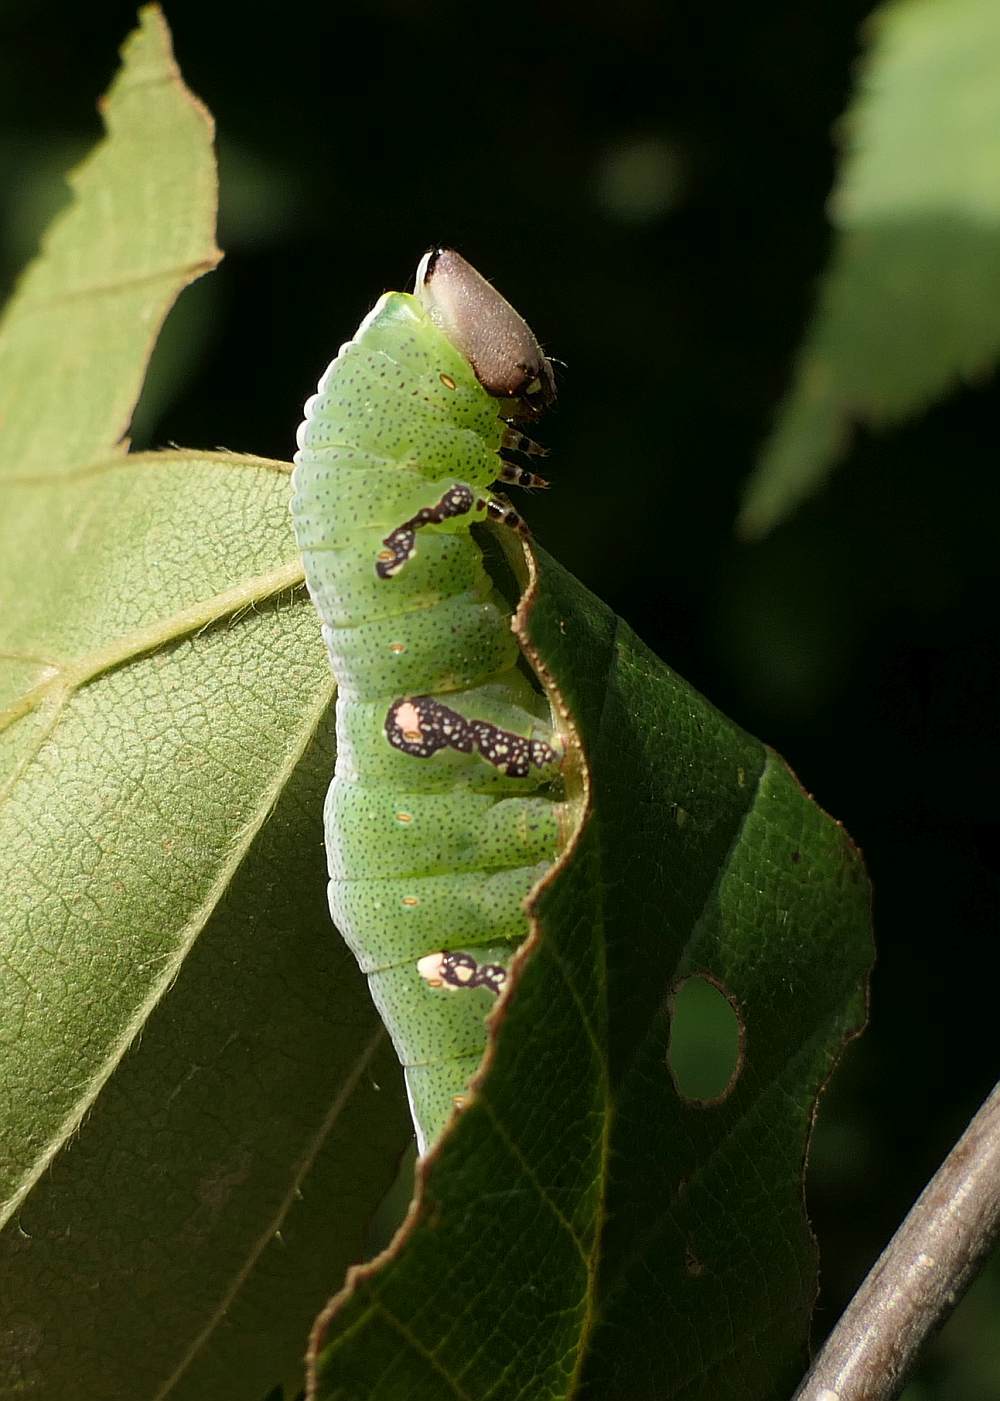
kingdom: Animalia
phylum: Arthropoda
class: Insecta
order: Lepidoptera
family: Notodontidae
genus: Disphragis
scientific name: Disphragis Cecrita biundata
